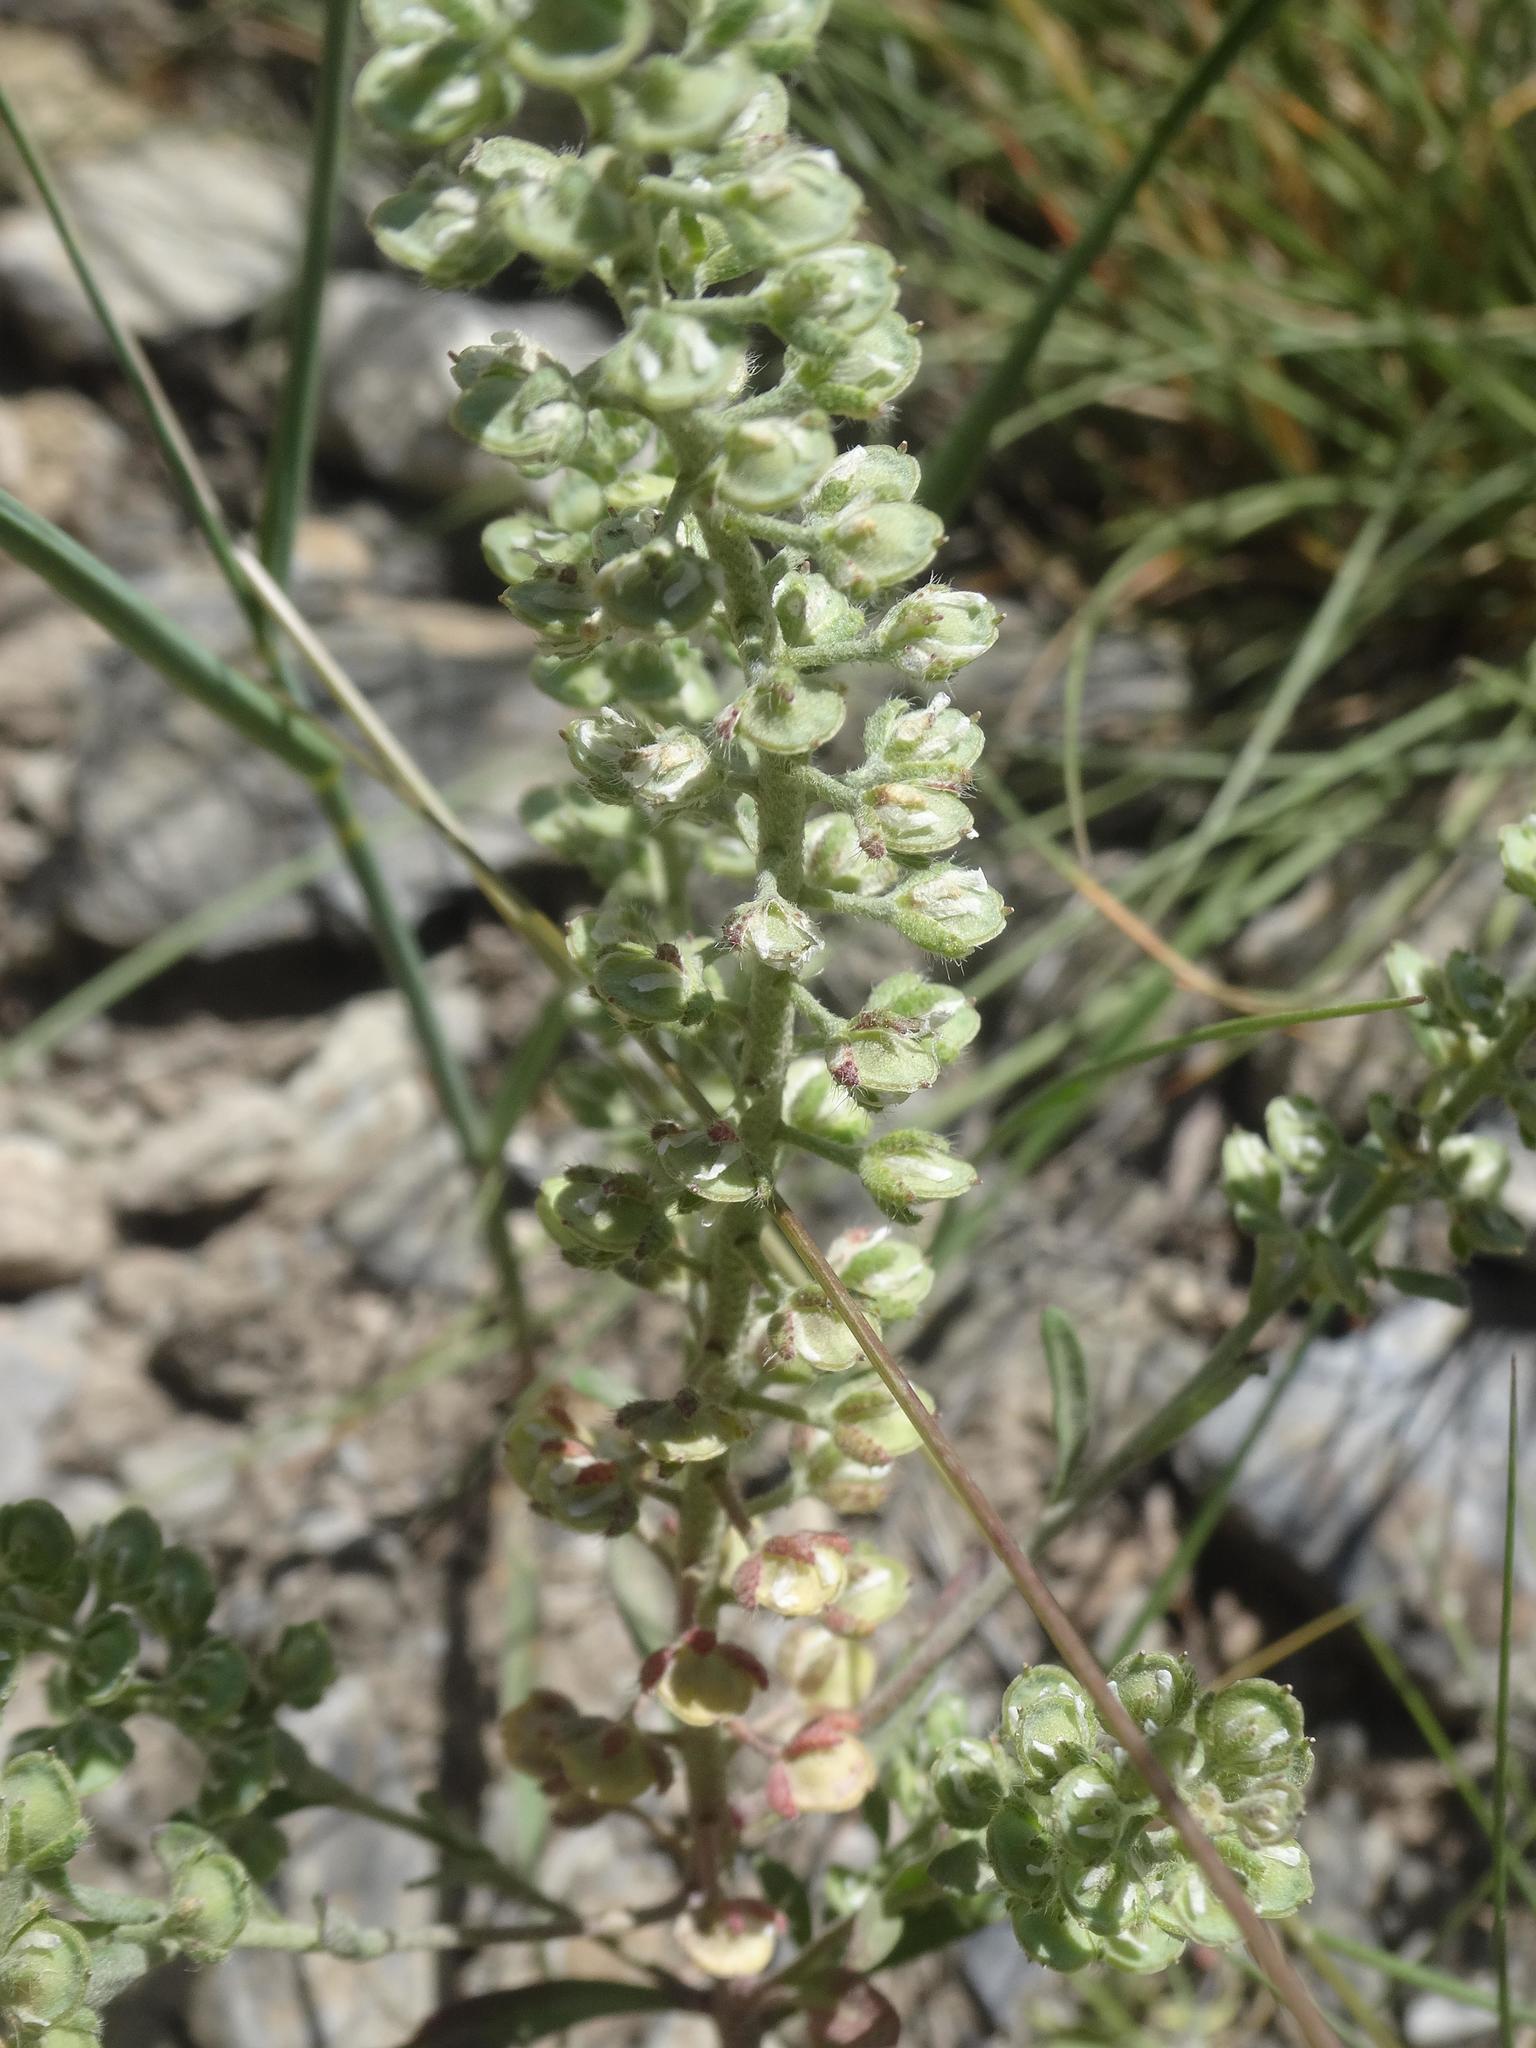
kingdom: Plantae
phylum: Tracheophyta
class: Magnoliopsida
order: Brassicales
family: Brassicaceae
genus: Alyssum
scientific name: Alyssum alyssoides
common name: Small alison
